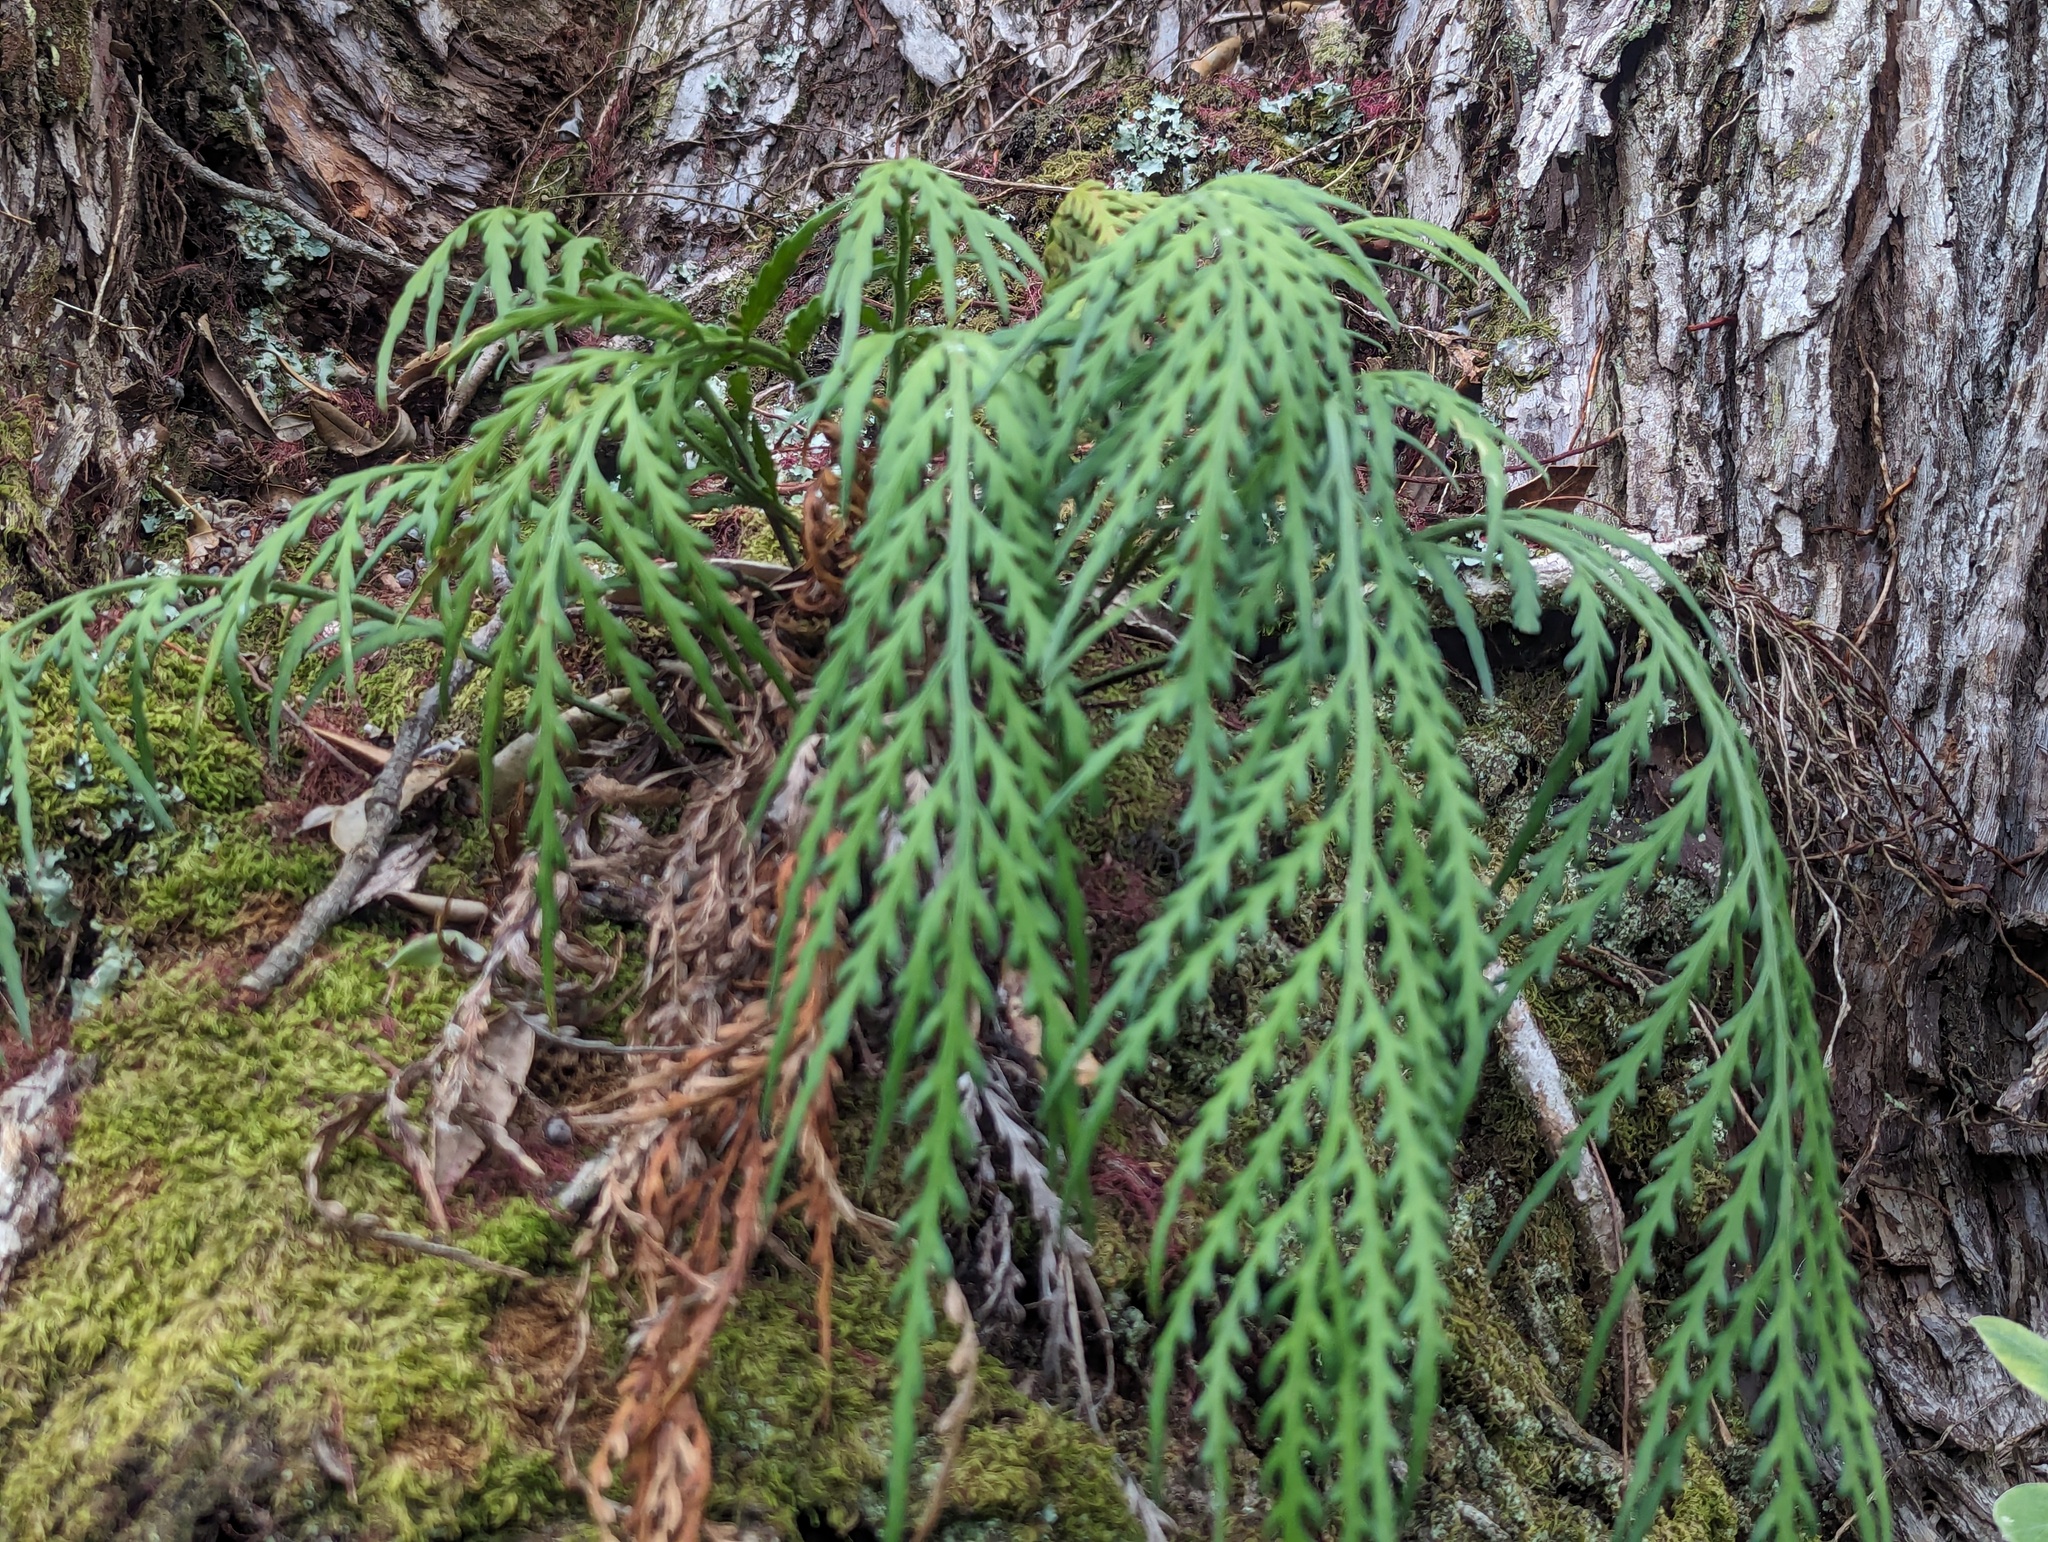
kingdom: Plantae
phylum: Tracheophyta
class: Polypodiopsida
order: Polypodiales
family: Aspleniaceae
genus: Asplenium
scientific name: Asplenium flaccidum
